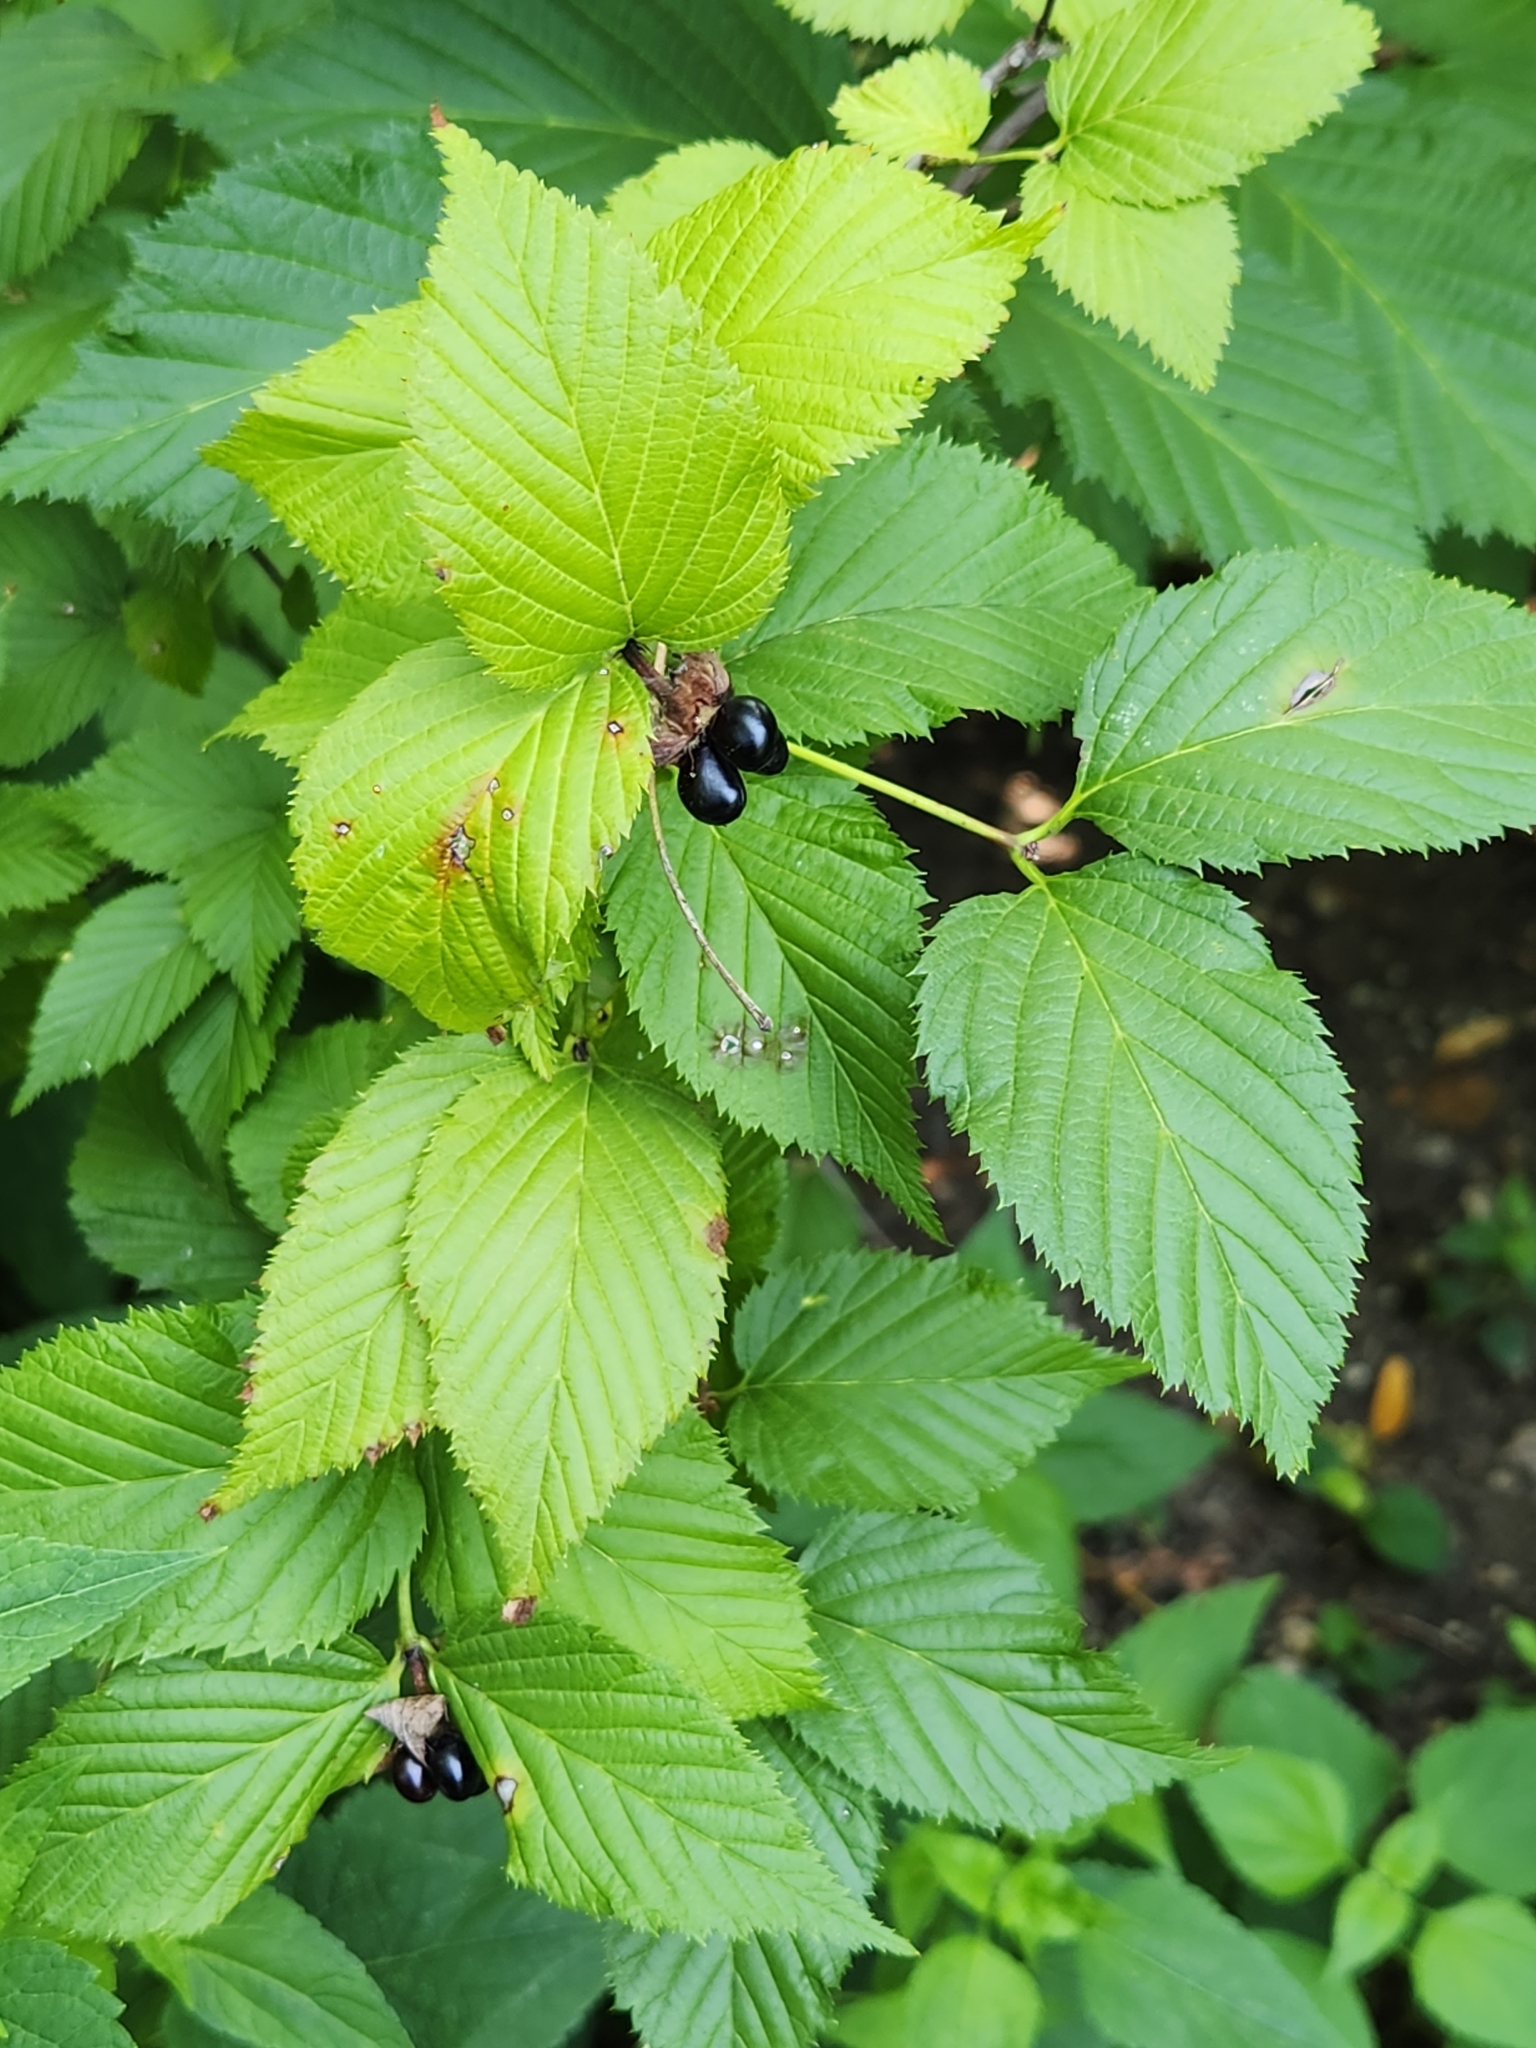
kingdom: Plantae
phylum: Tracheophyta
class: Magnoliopsida
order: Rosales
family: Rosaceae
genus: Rhodotypos
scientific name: Rhodotypos scandens
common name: Jetbead
